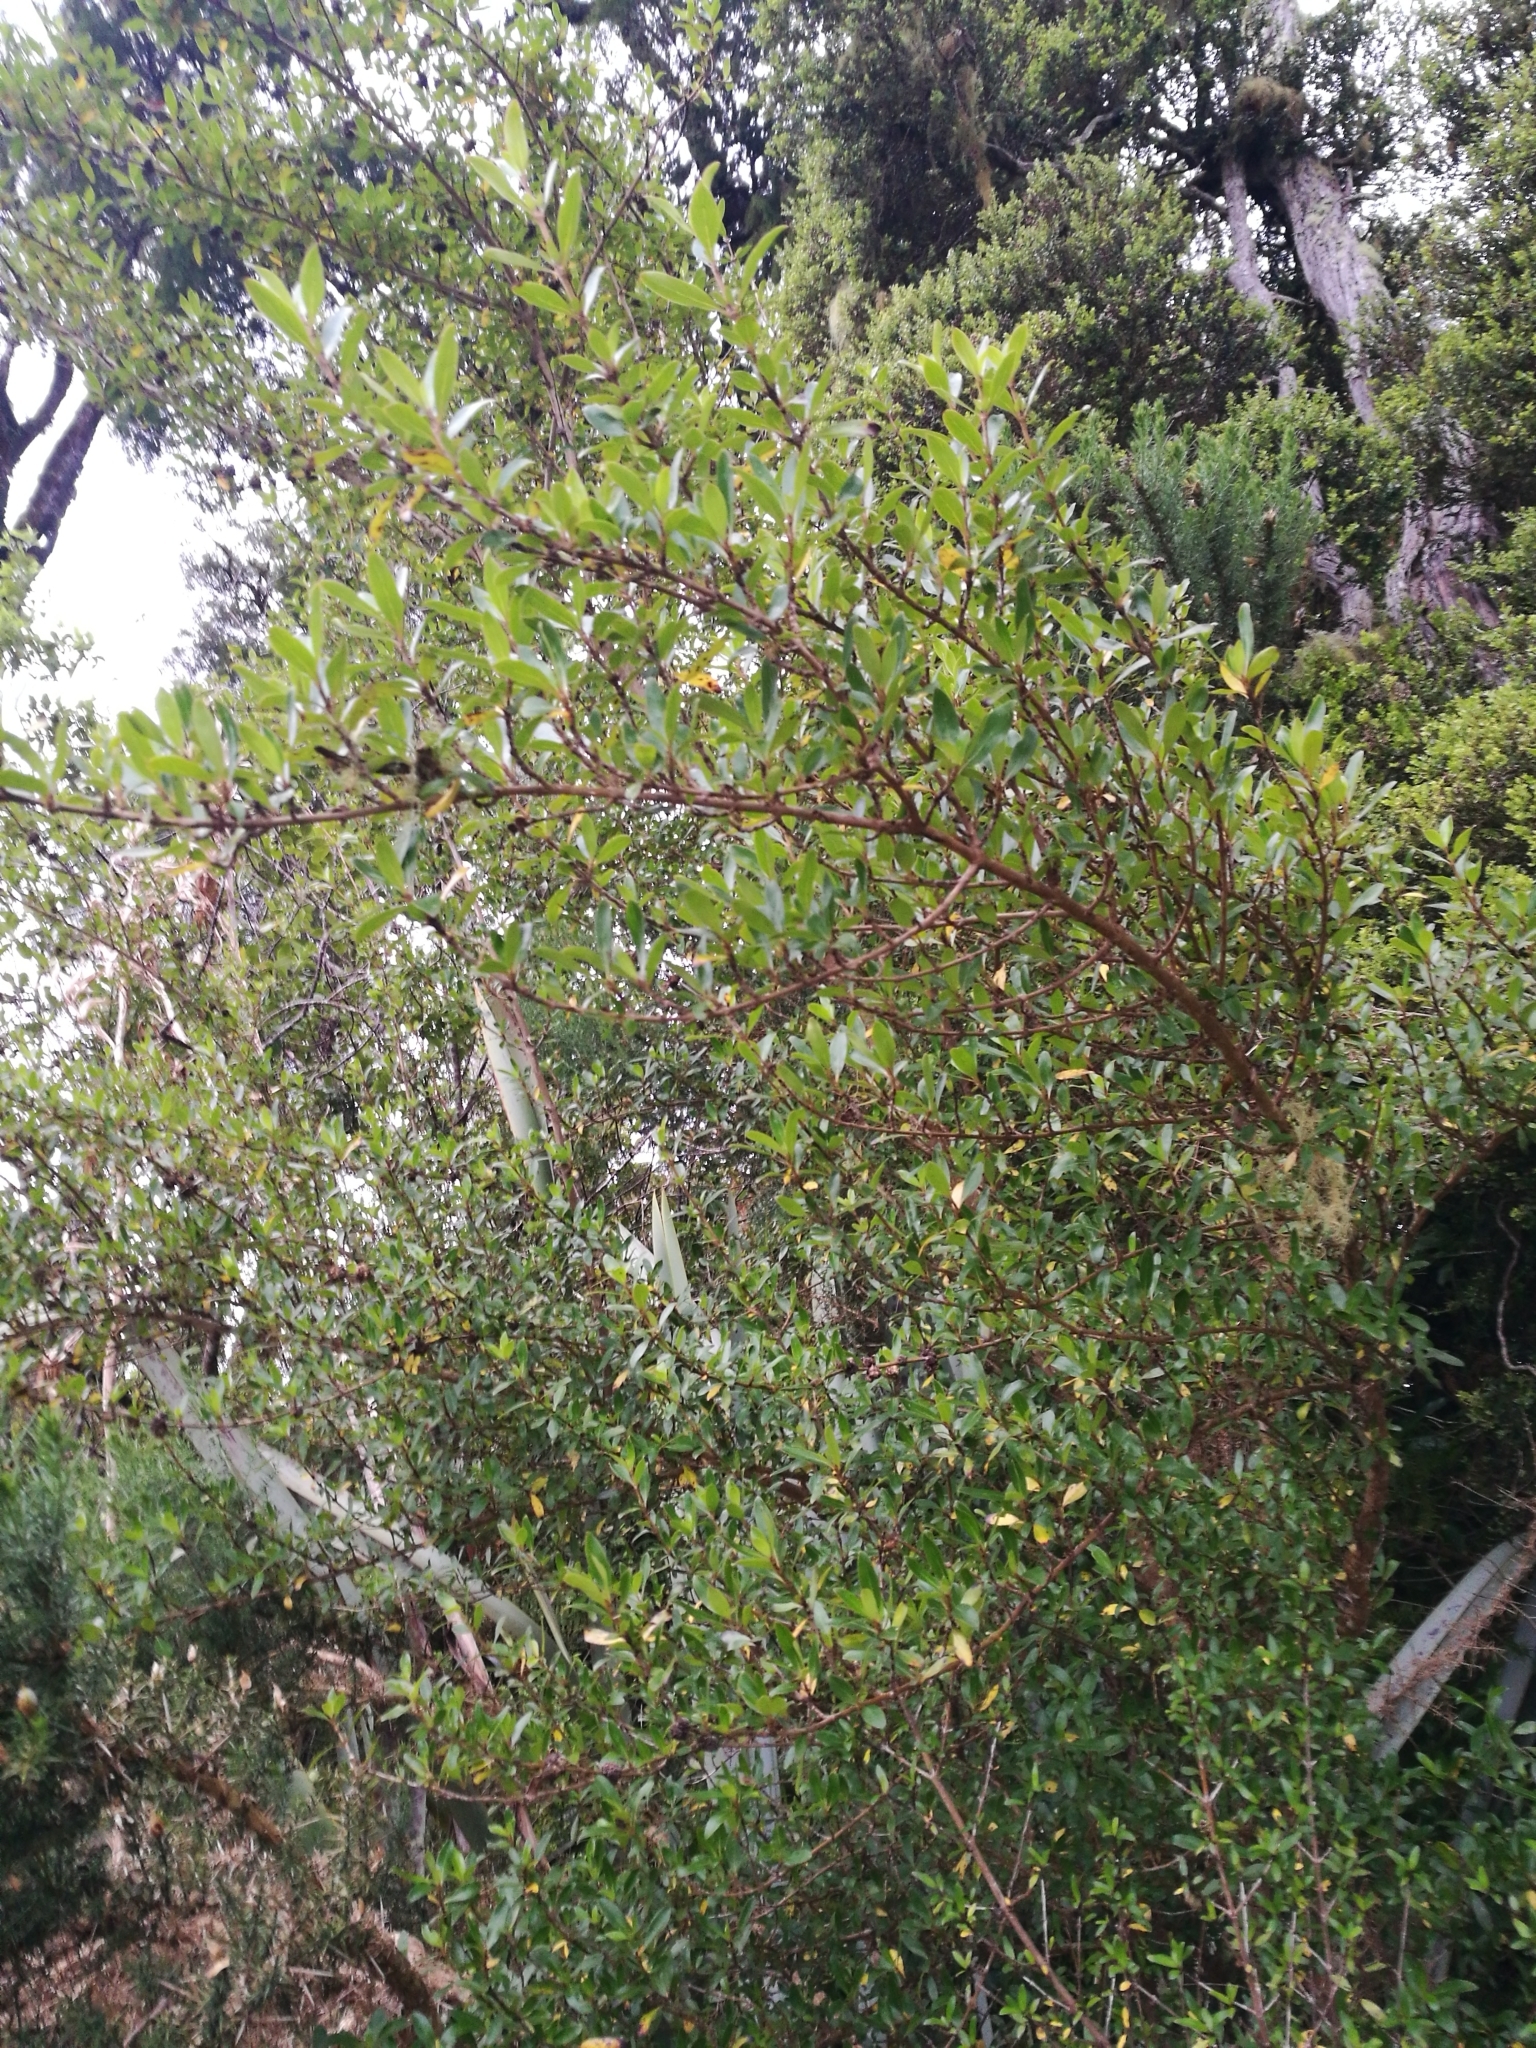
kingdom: Plantae
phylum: Tracheophyta
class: Magnoliopsida
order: Gentianales
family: Rubiaceae
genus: Coprosma
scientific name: Coprosma cunninghamii
